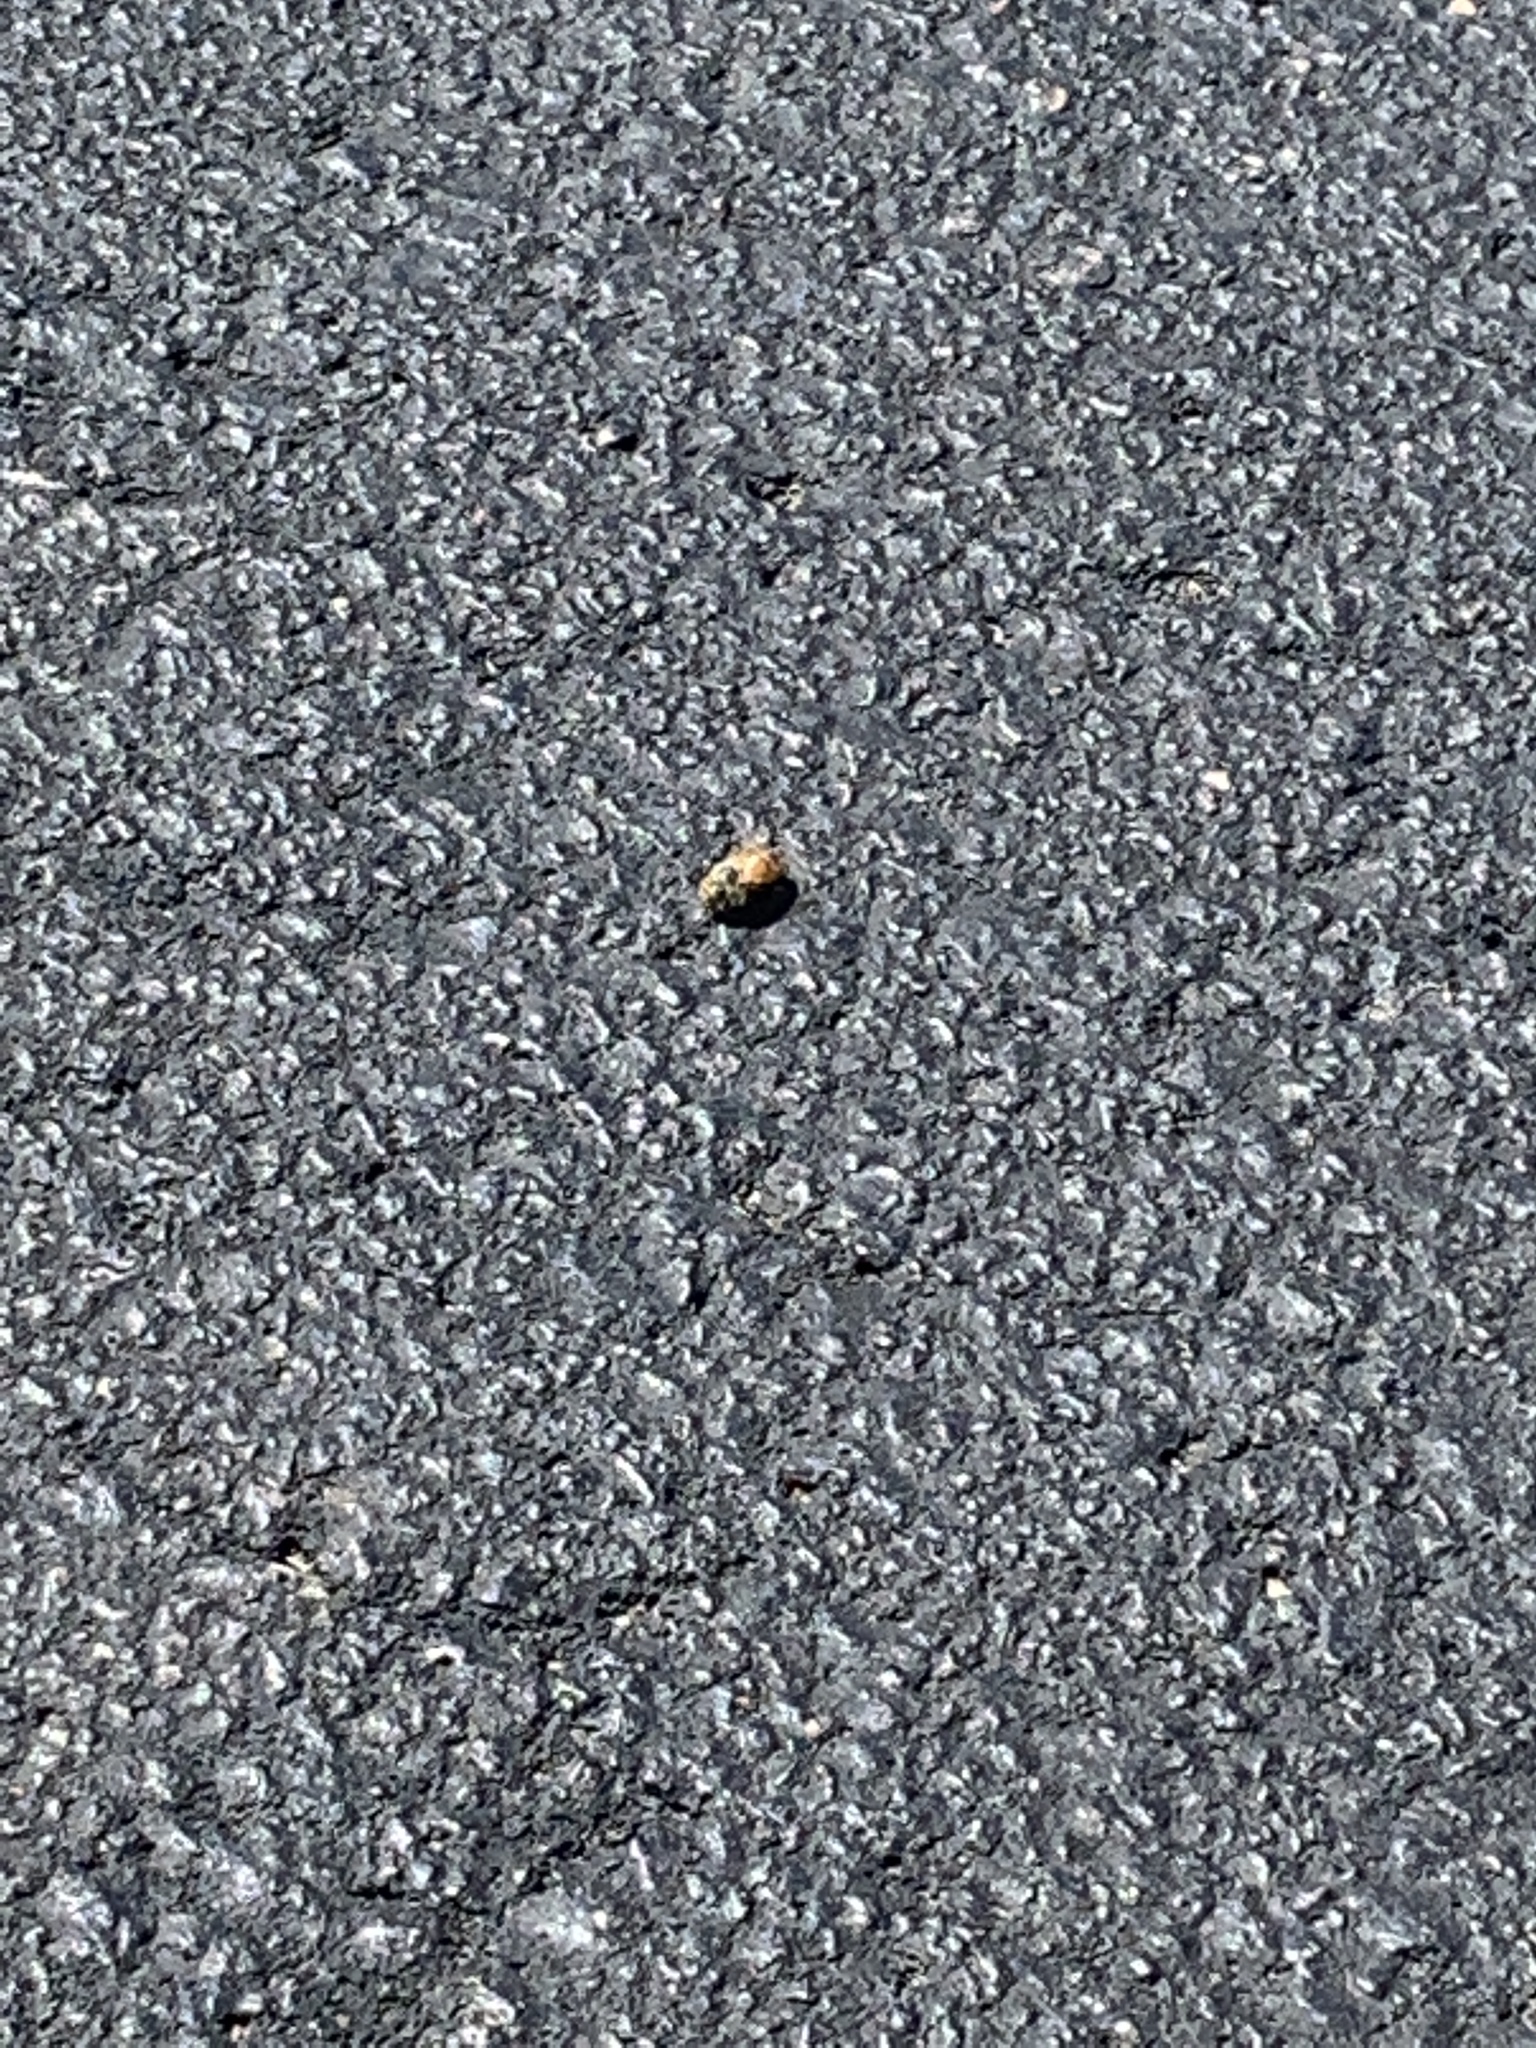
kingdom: Animalia
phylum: Arthropoda
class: Insecta
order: Hymenoptera
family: Apidae
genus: Apis
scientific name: Apis mellifera
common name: Honey bee
